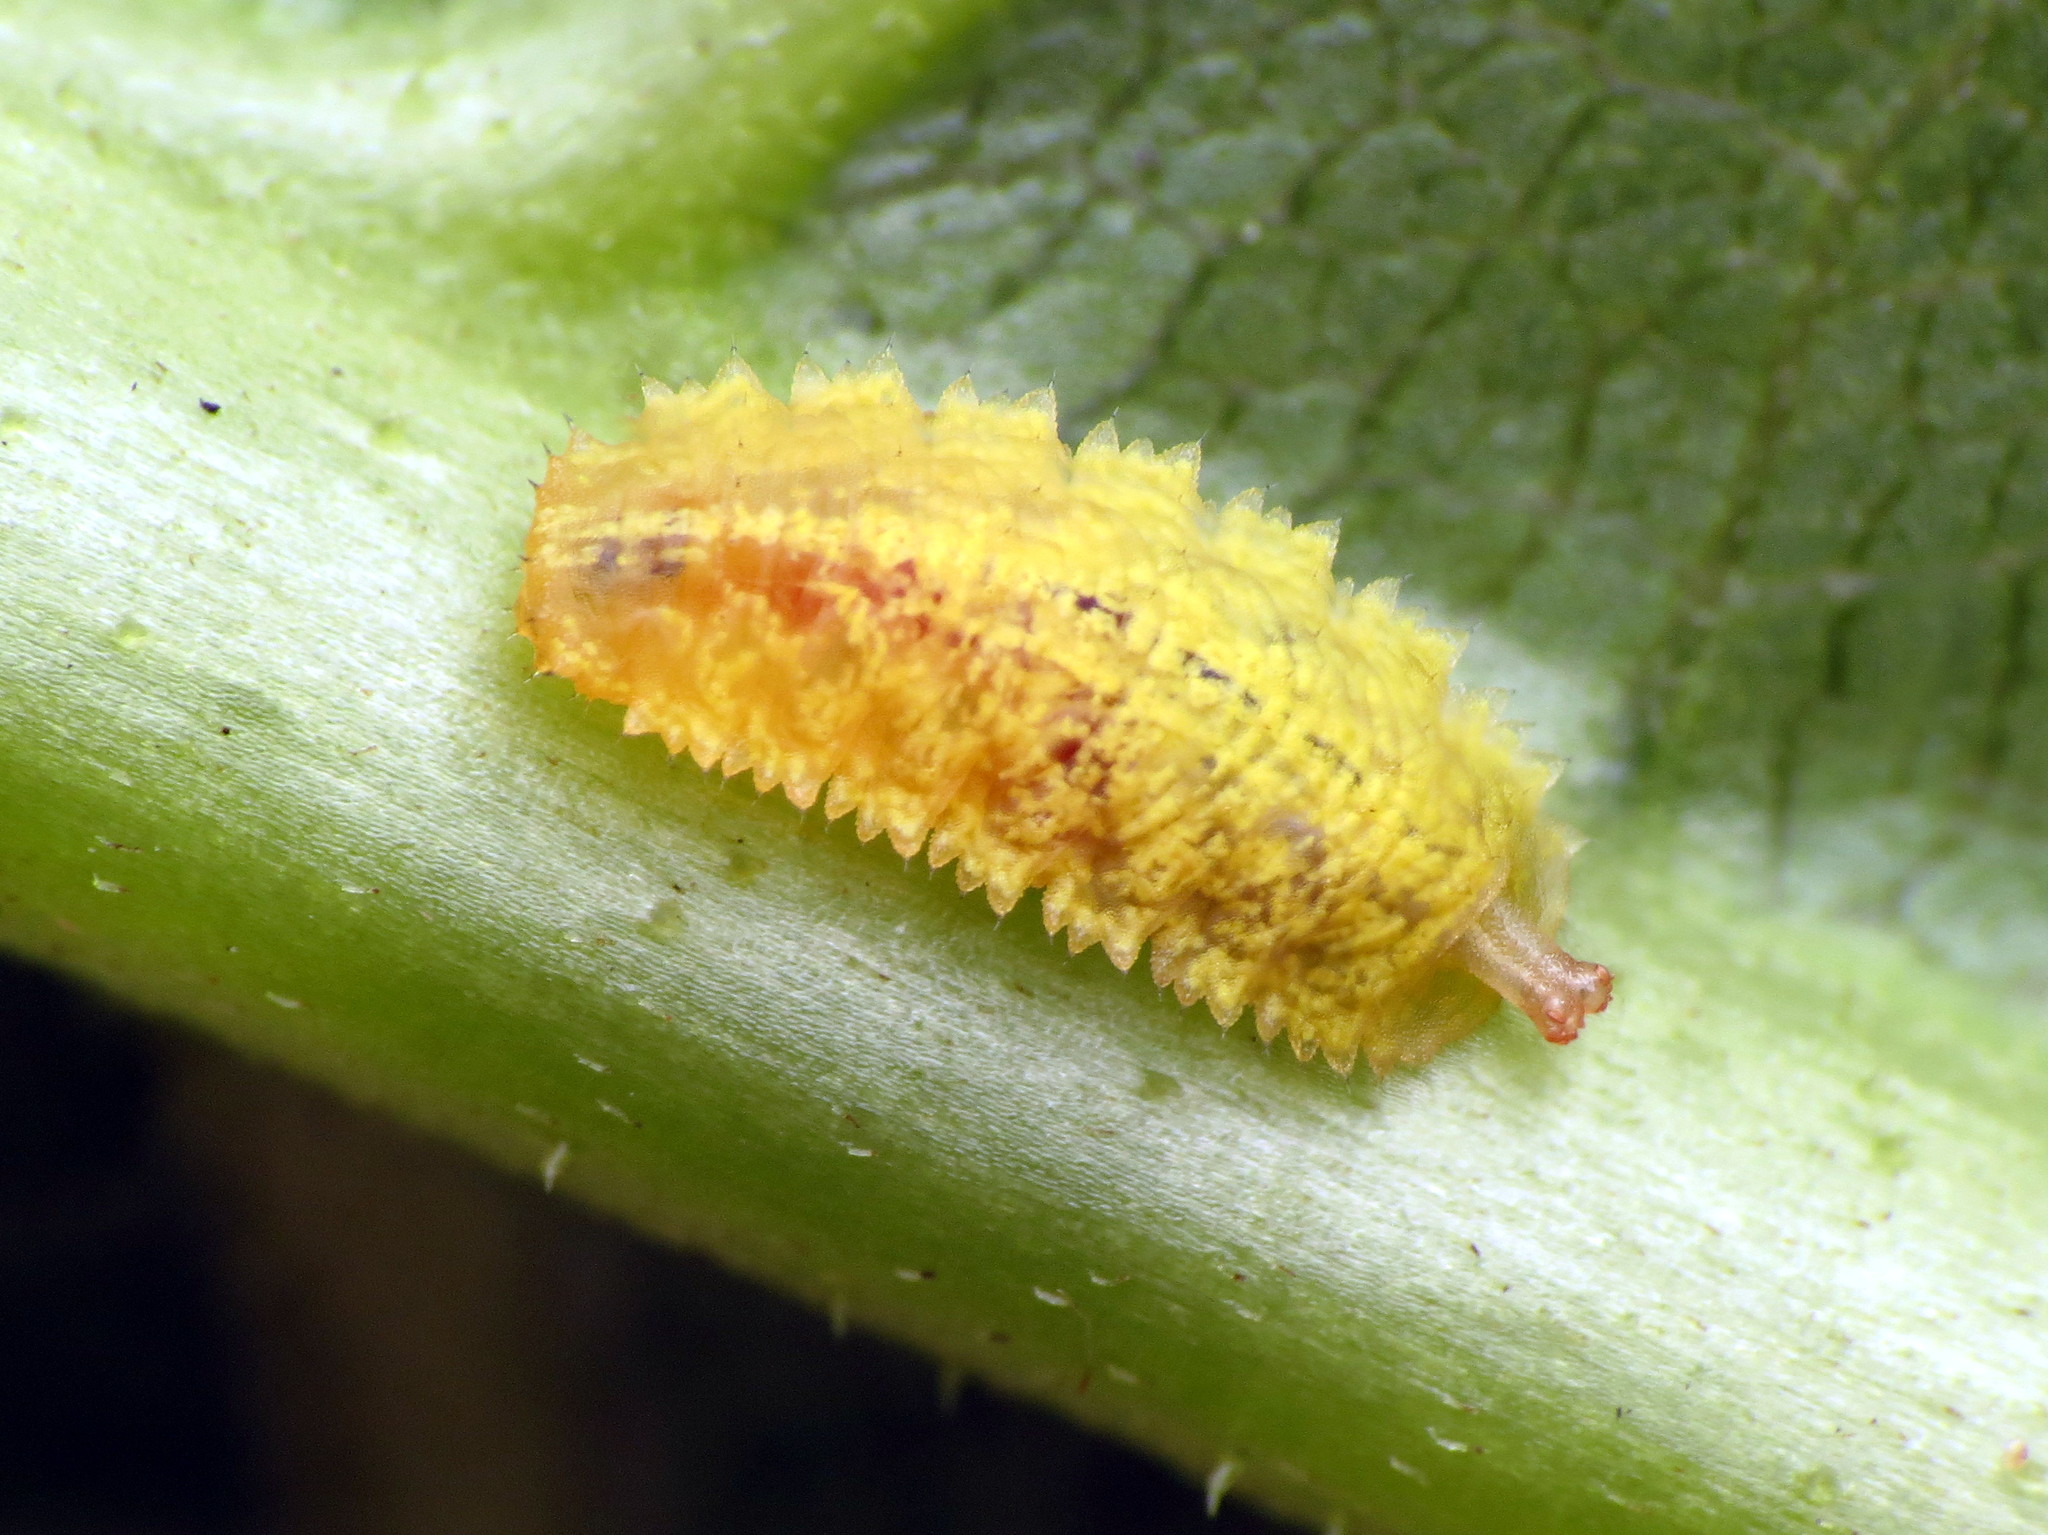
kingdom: Animalia
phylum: Arthropoda
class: Insecta
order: Diptera
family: Syrphidae
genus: Epistrophella
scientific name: Epistrophella emarginata
